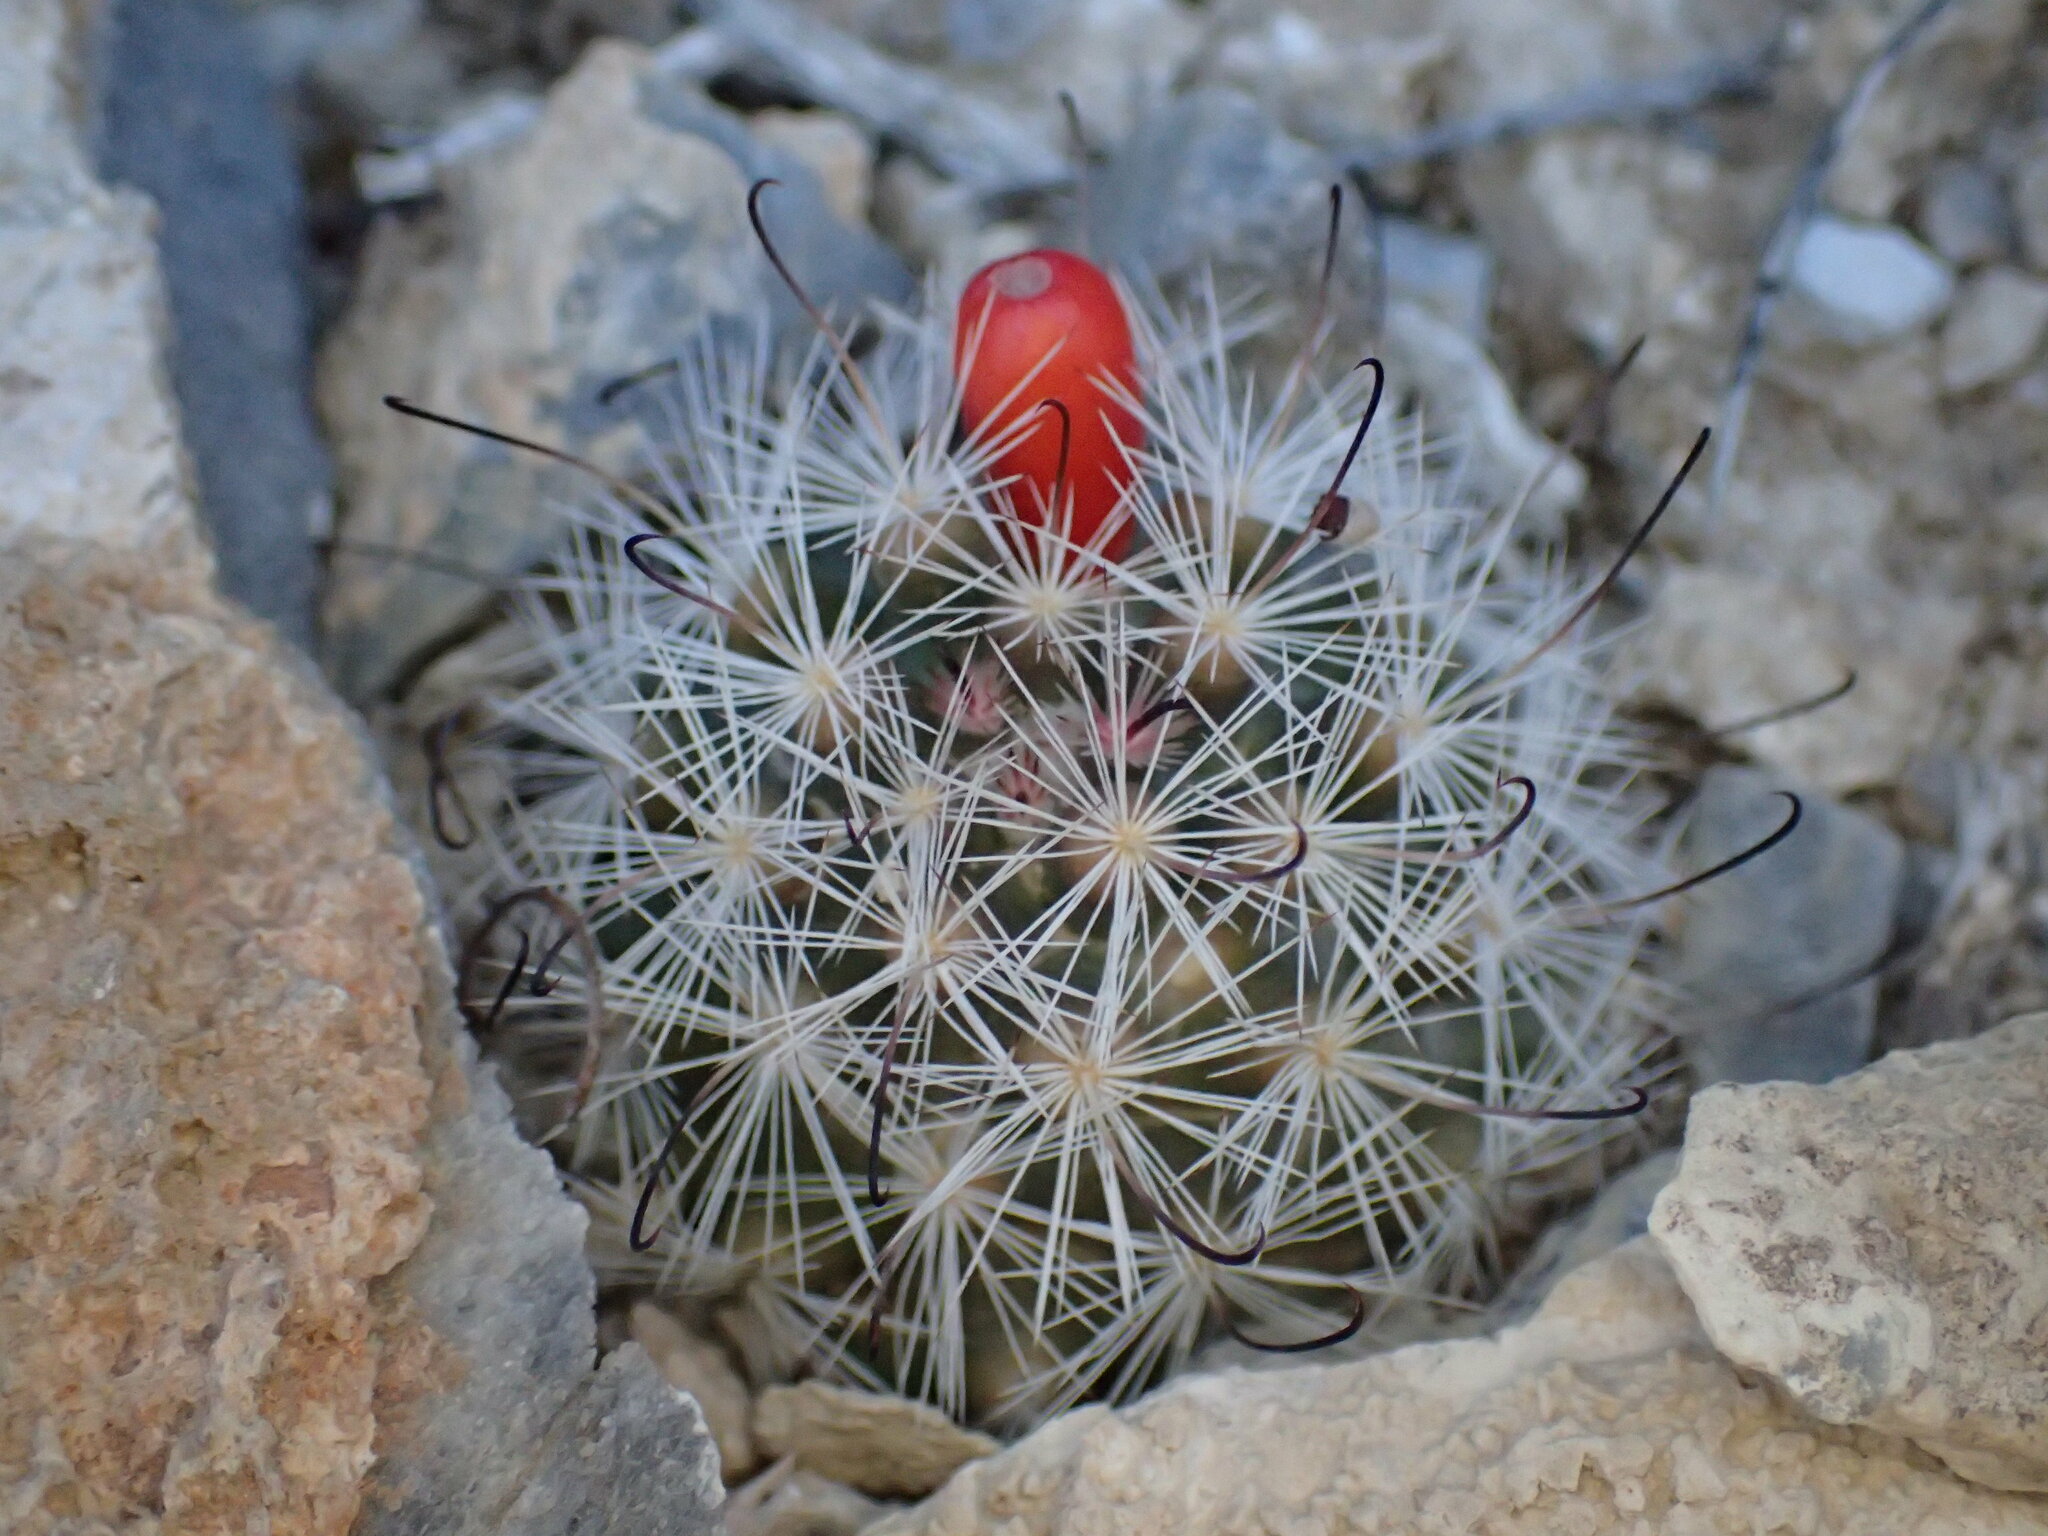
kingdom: Plantae
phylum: Tracheophyta
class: Magnoliopsida
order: Caryophyllales
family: Cactaceae
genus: Cochemiea
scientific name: Cochemiea tetrancistra
